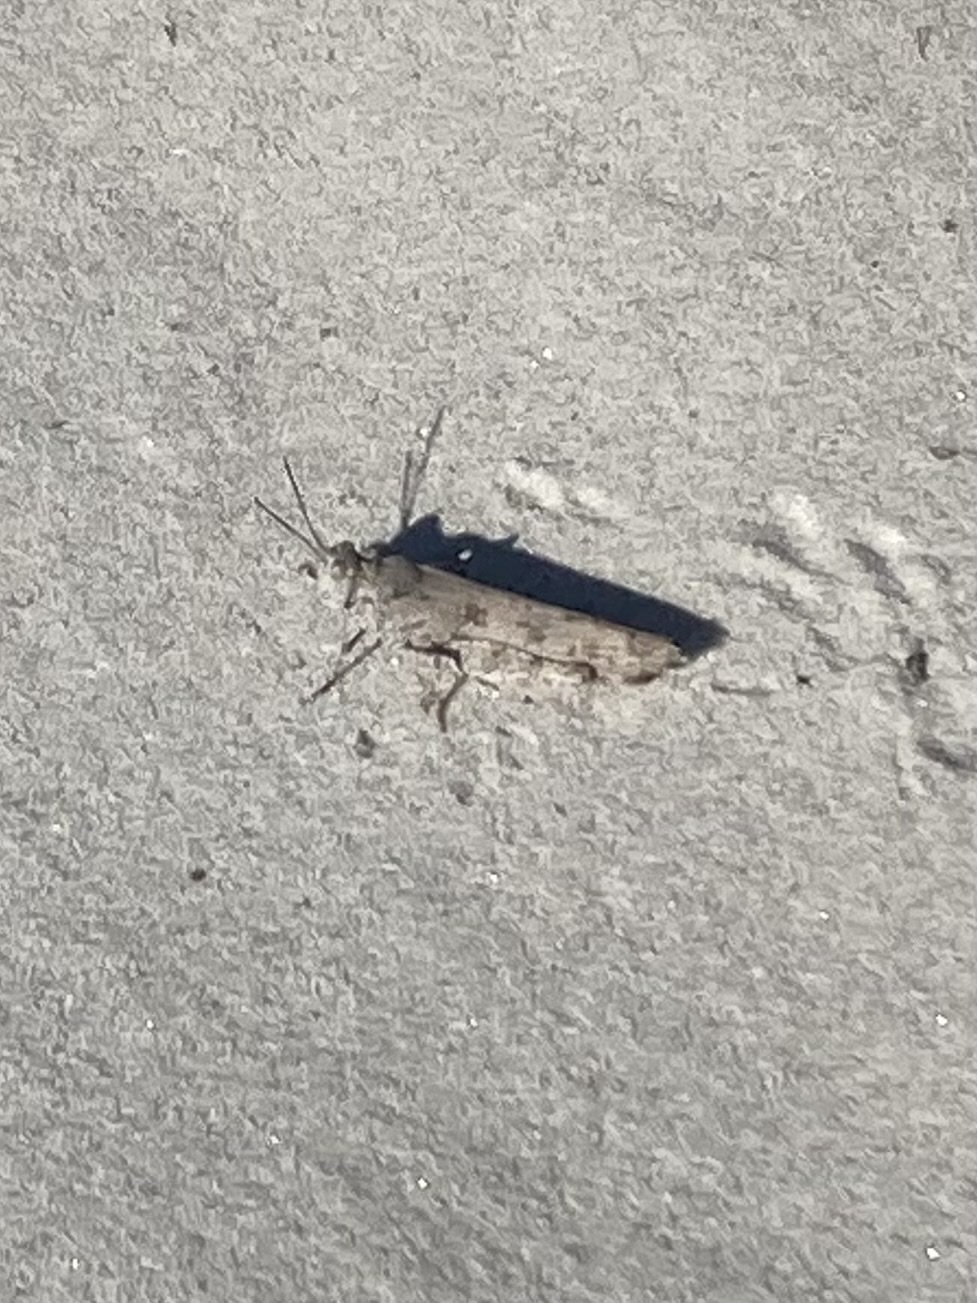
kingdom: Animalia
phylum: Arthropoda
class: Insecta
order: Orthoptera
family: Acrididae
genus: Trimerotropis
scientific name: Trimerotropis maritima
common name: Seaside locust
